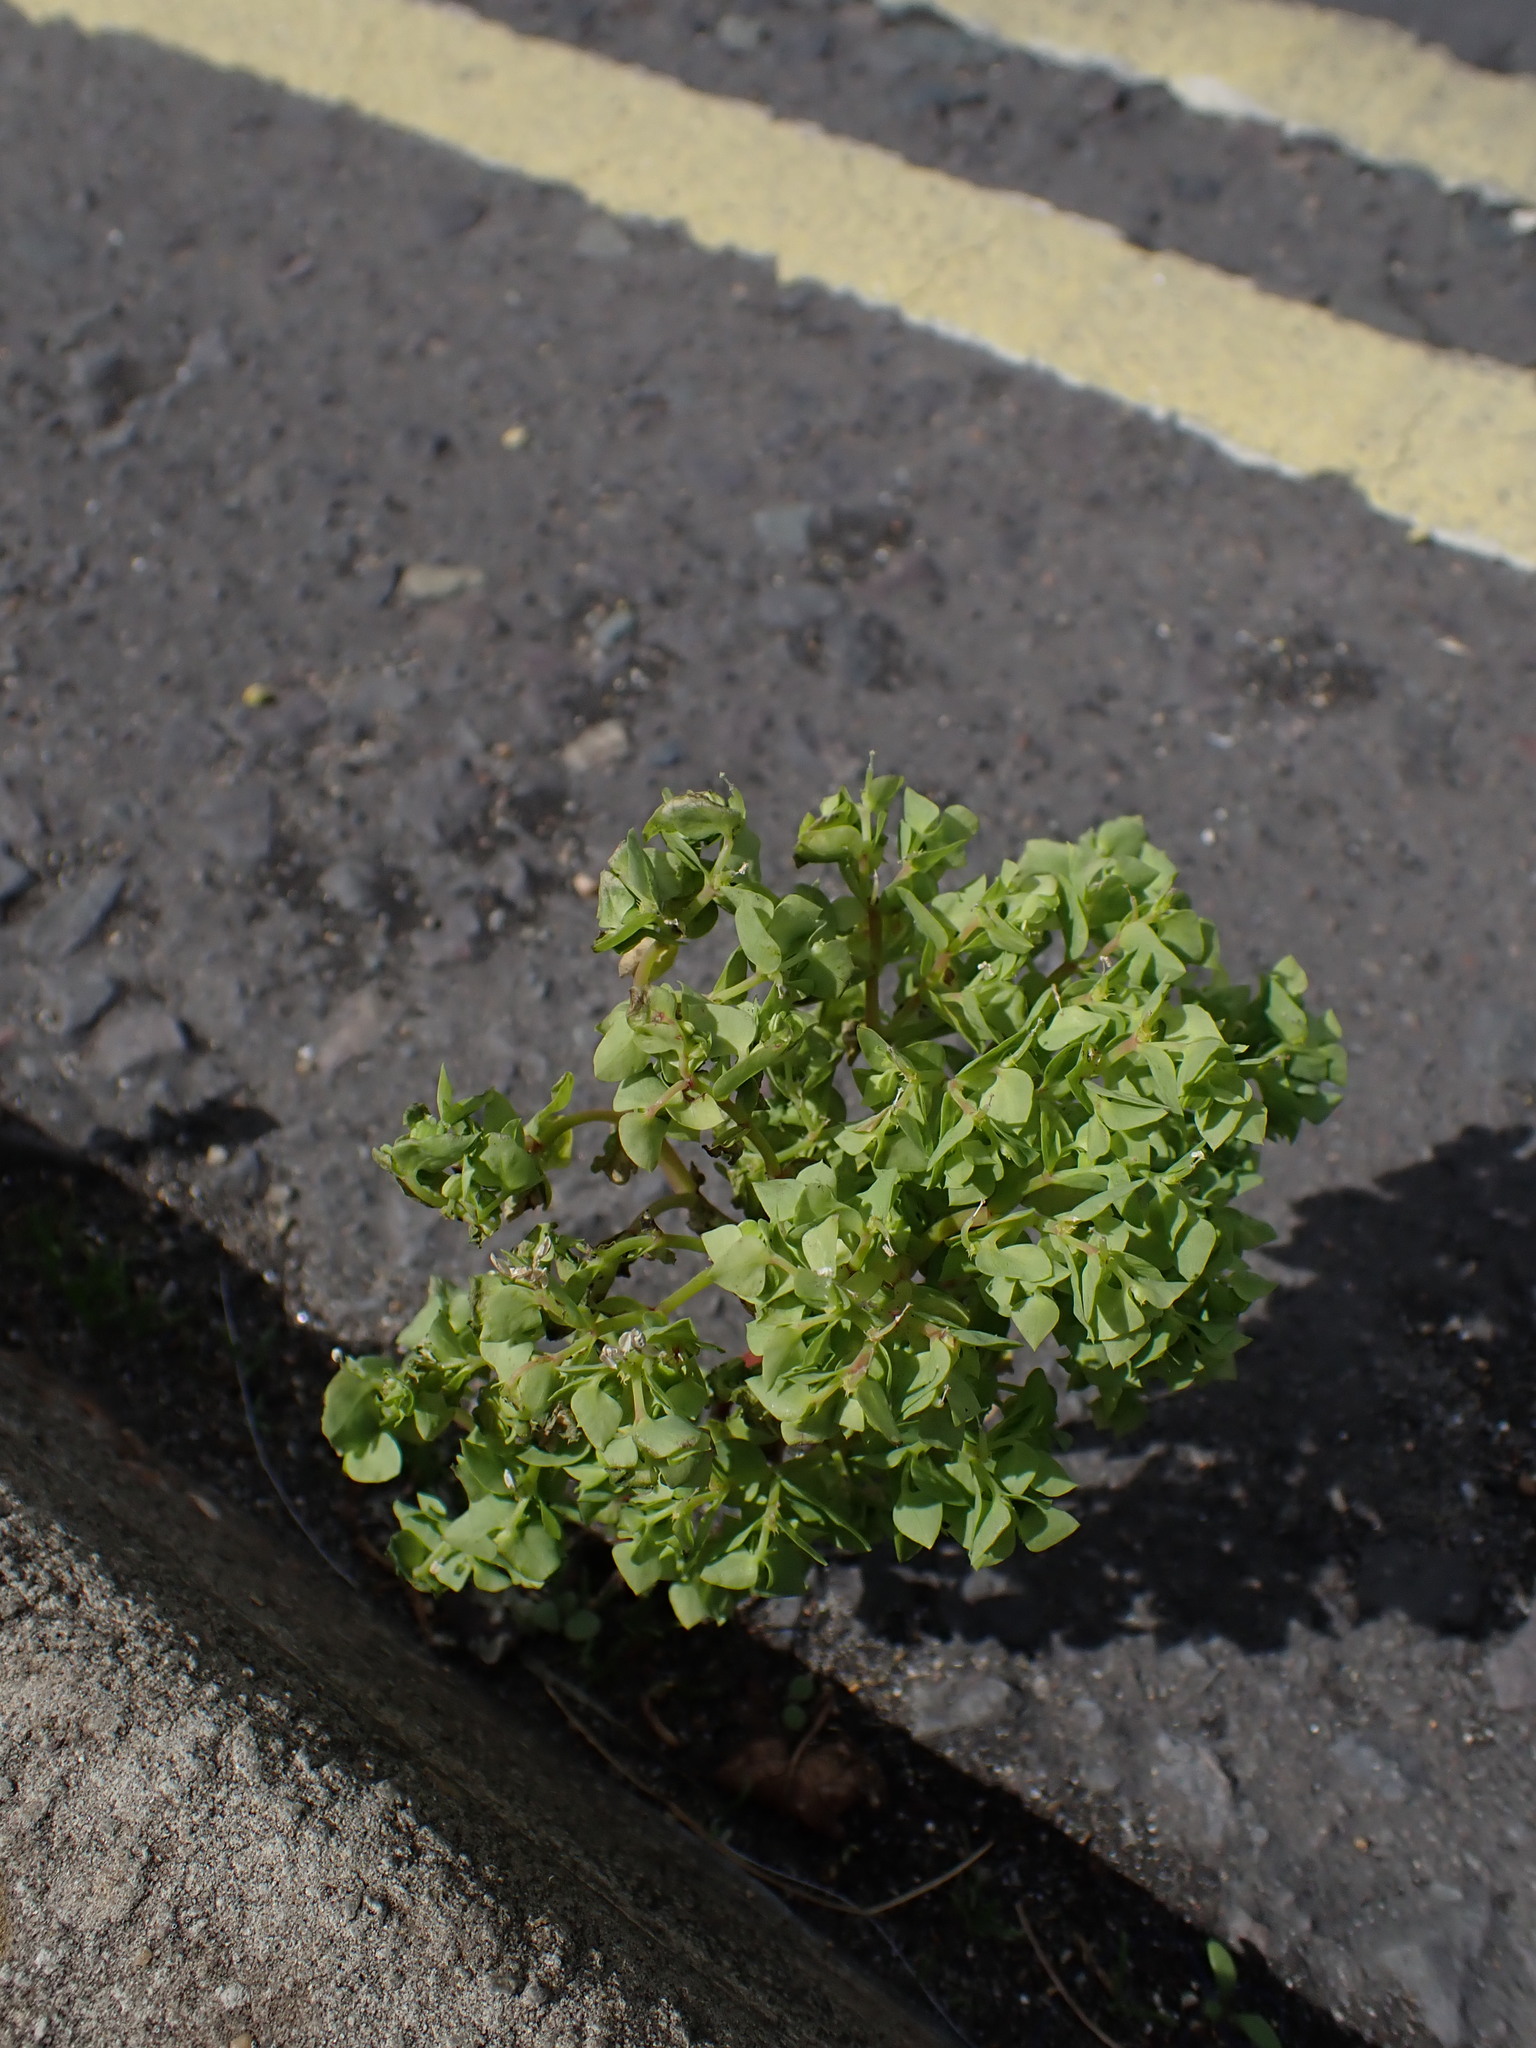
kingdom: Plantae
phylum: Tracheophyta
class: Magnoliopsida
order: Malpighiales
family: Euphorbiaceae
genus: Euphorbia
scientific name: Euphorbia peplus
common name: Petty spurge
